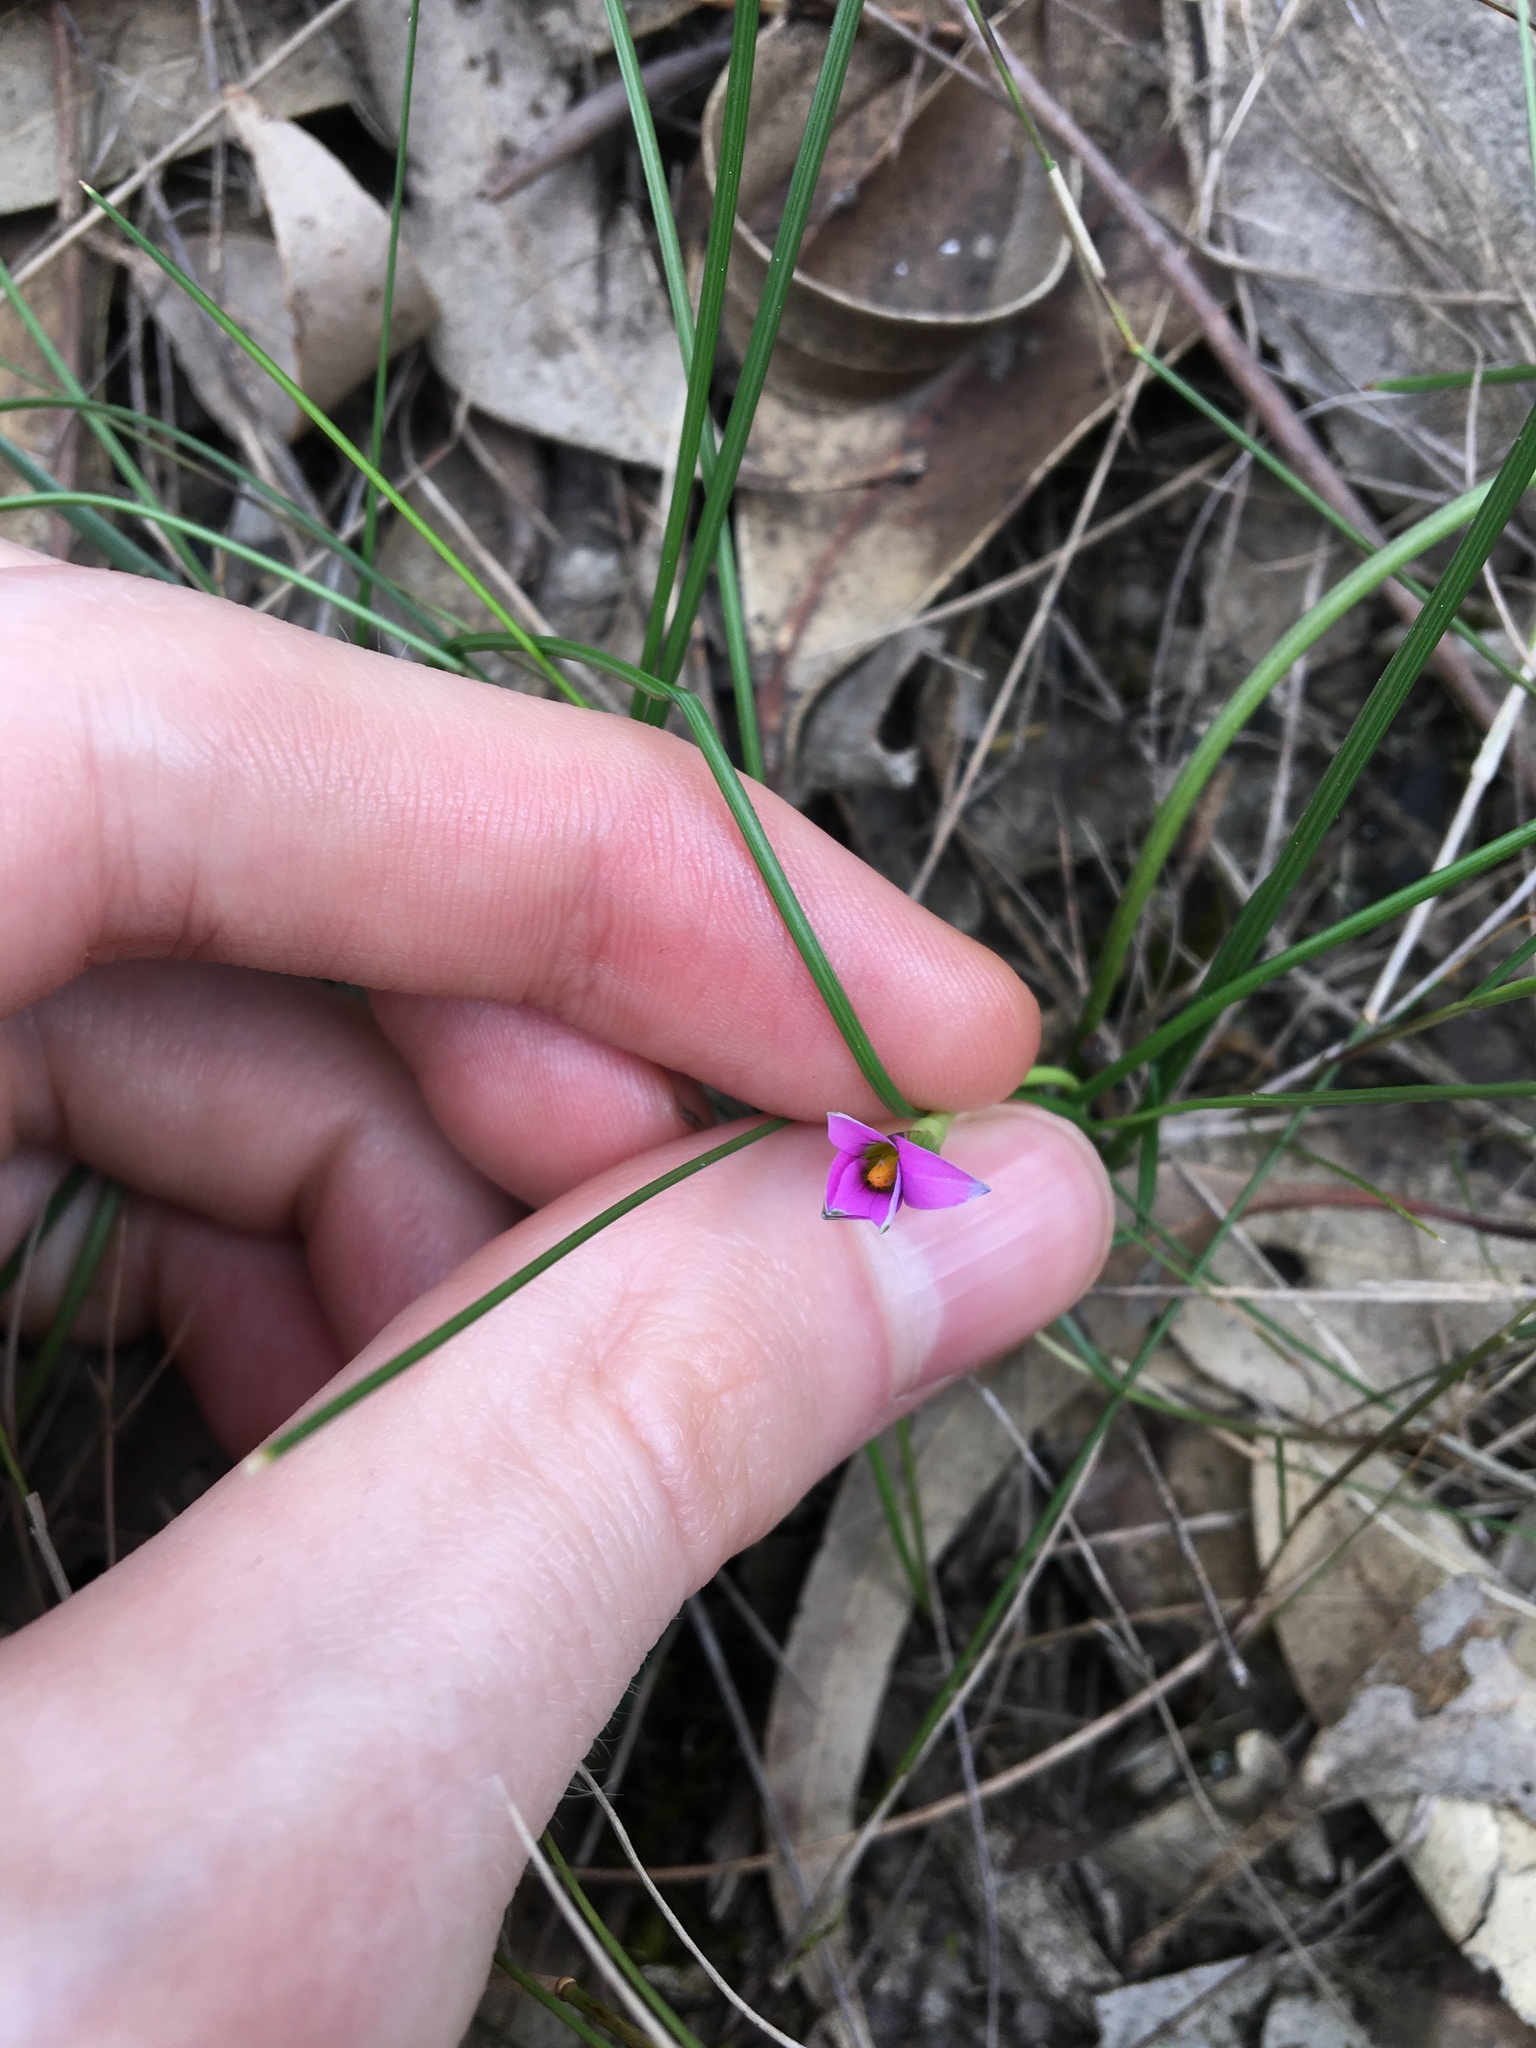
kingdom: Plantae
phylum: Tracheophyta
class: Liliopsida
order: Asparagales
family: Iridaceae
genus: Romulea
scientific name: Romulea rosea
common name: Oniongrass
